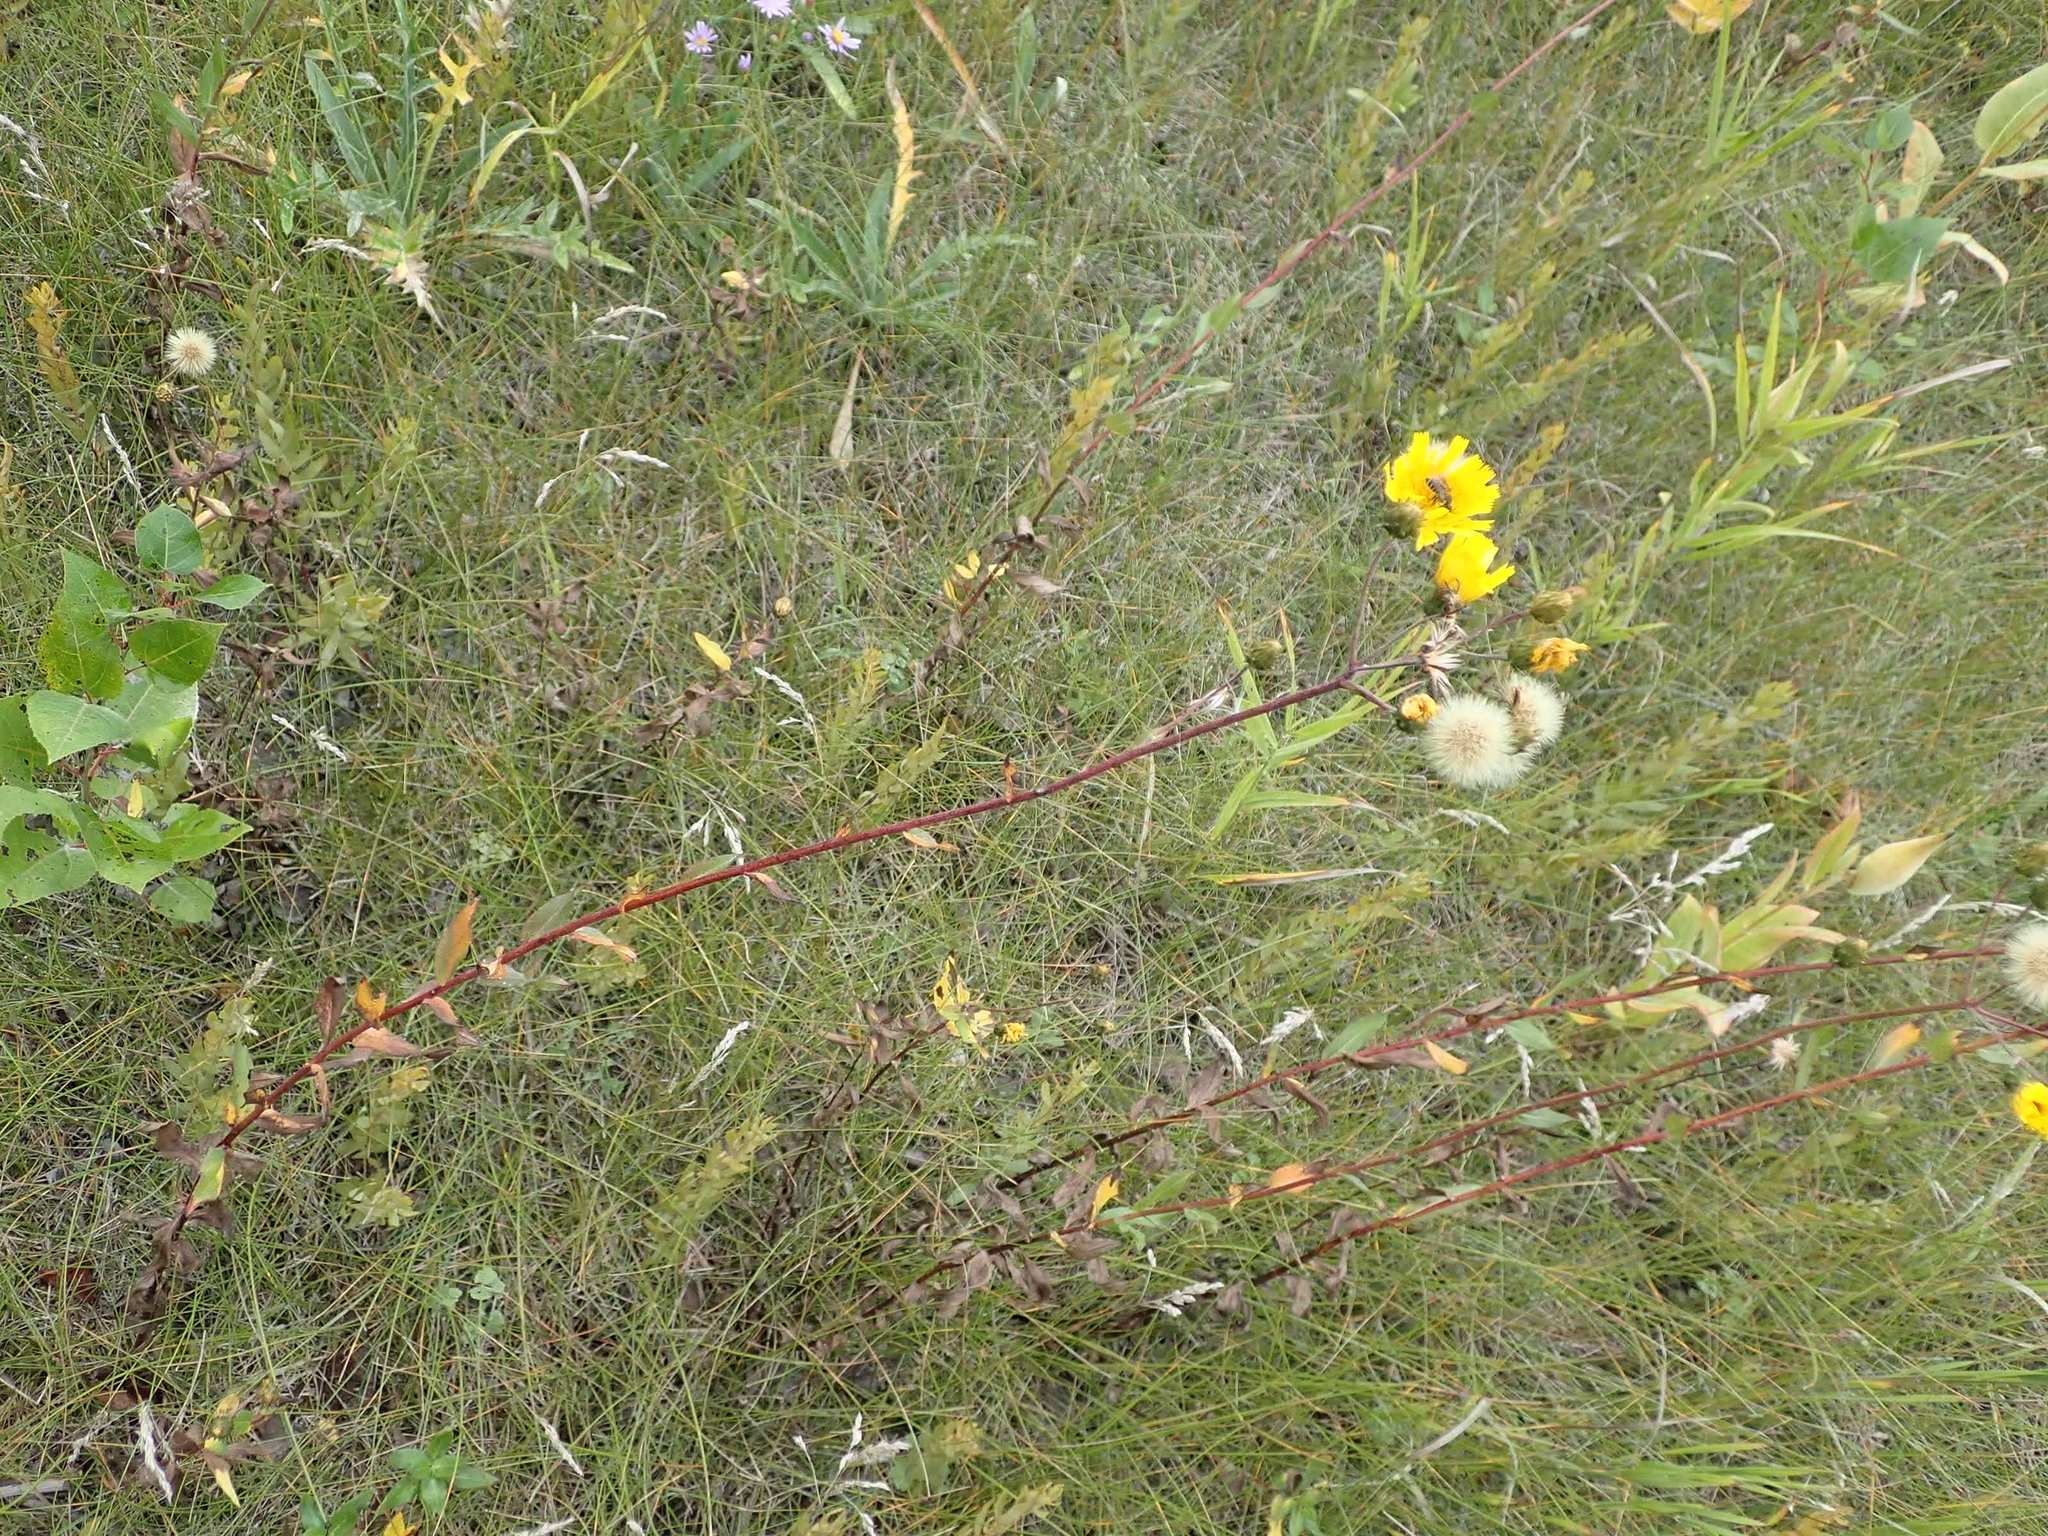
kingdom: Plantae
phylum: Tracheophyta
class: Magnoliopsida
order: Asterales
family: Asteraceae
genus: Hieracium
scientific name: Hieracium umbellatum
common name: Northern hawkweed
